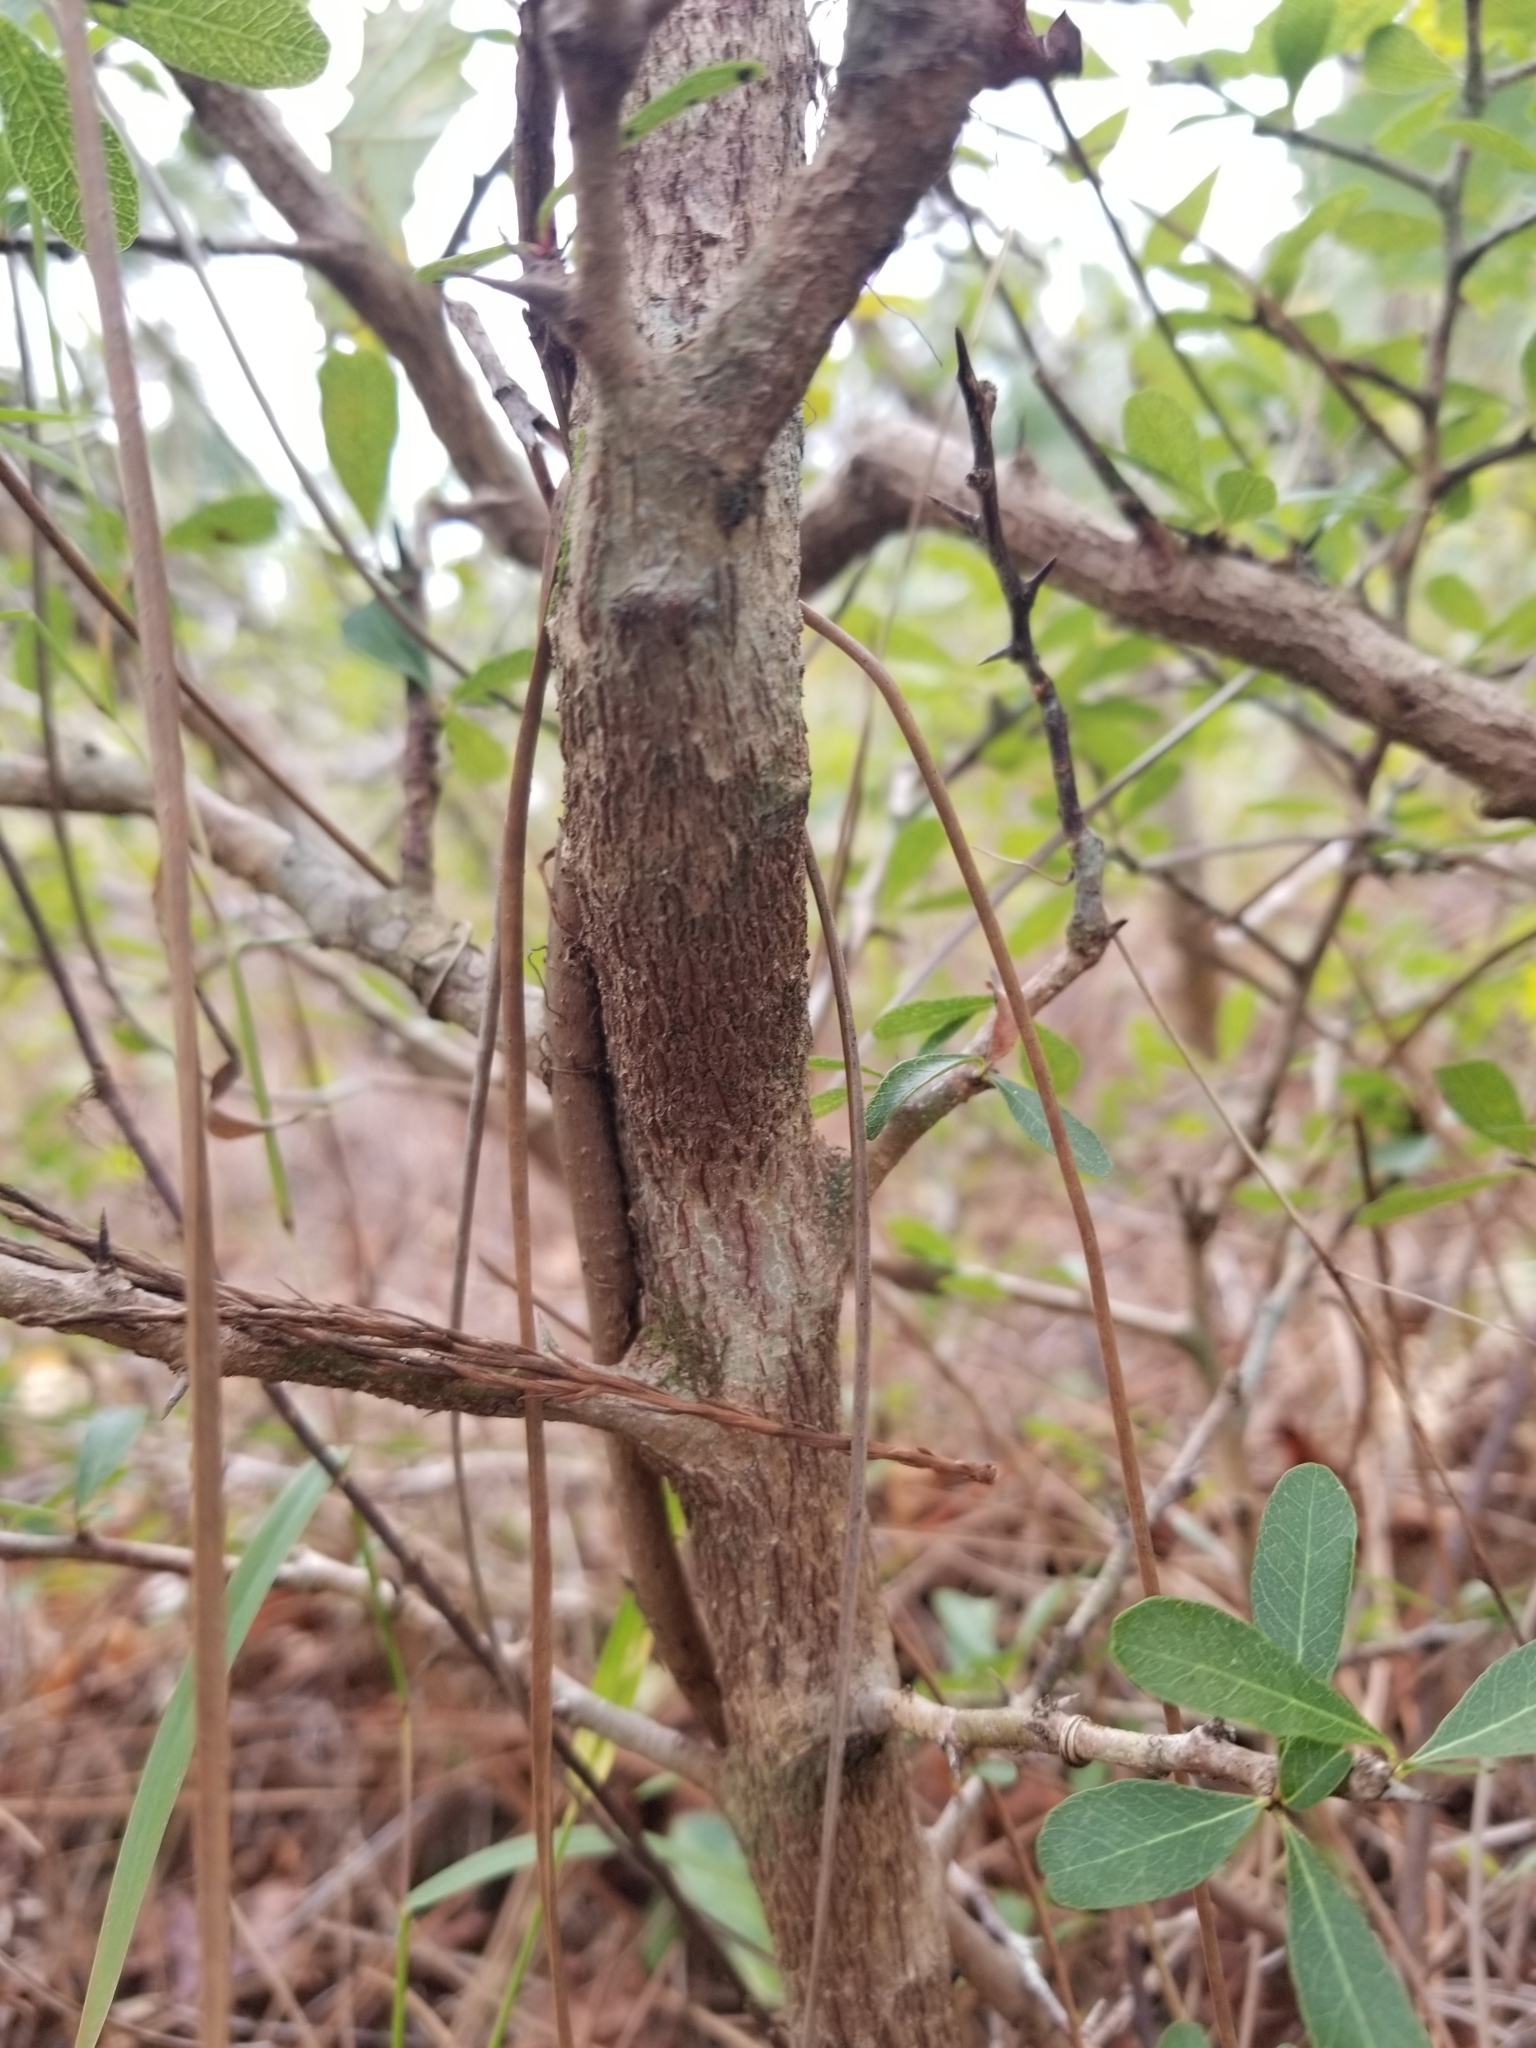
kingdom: Plantae
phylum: Tracheophyta
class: Magnoliopsida
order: Ericales
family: Sapotaceae
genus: Sideroxylon
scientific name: Sideroxylon reclinatum
